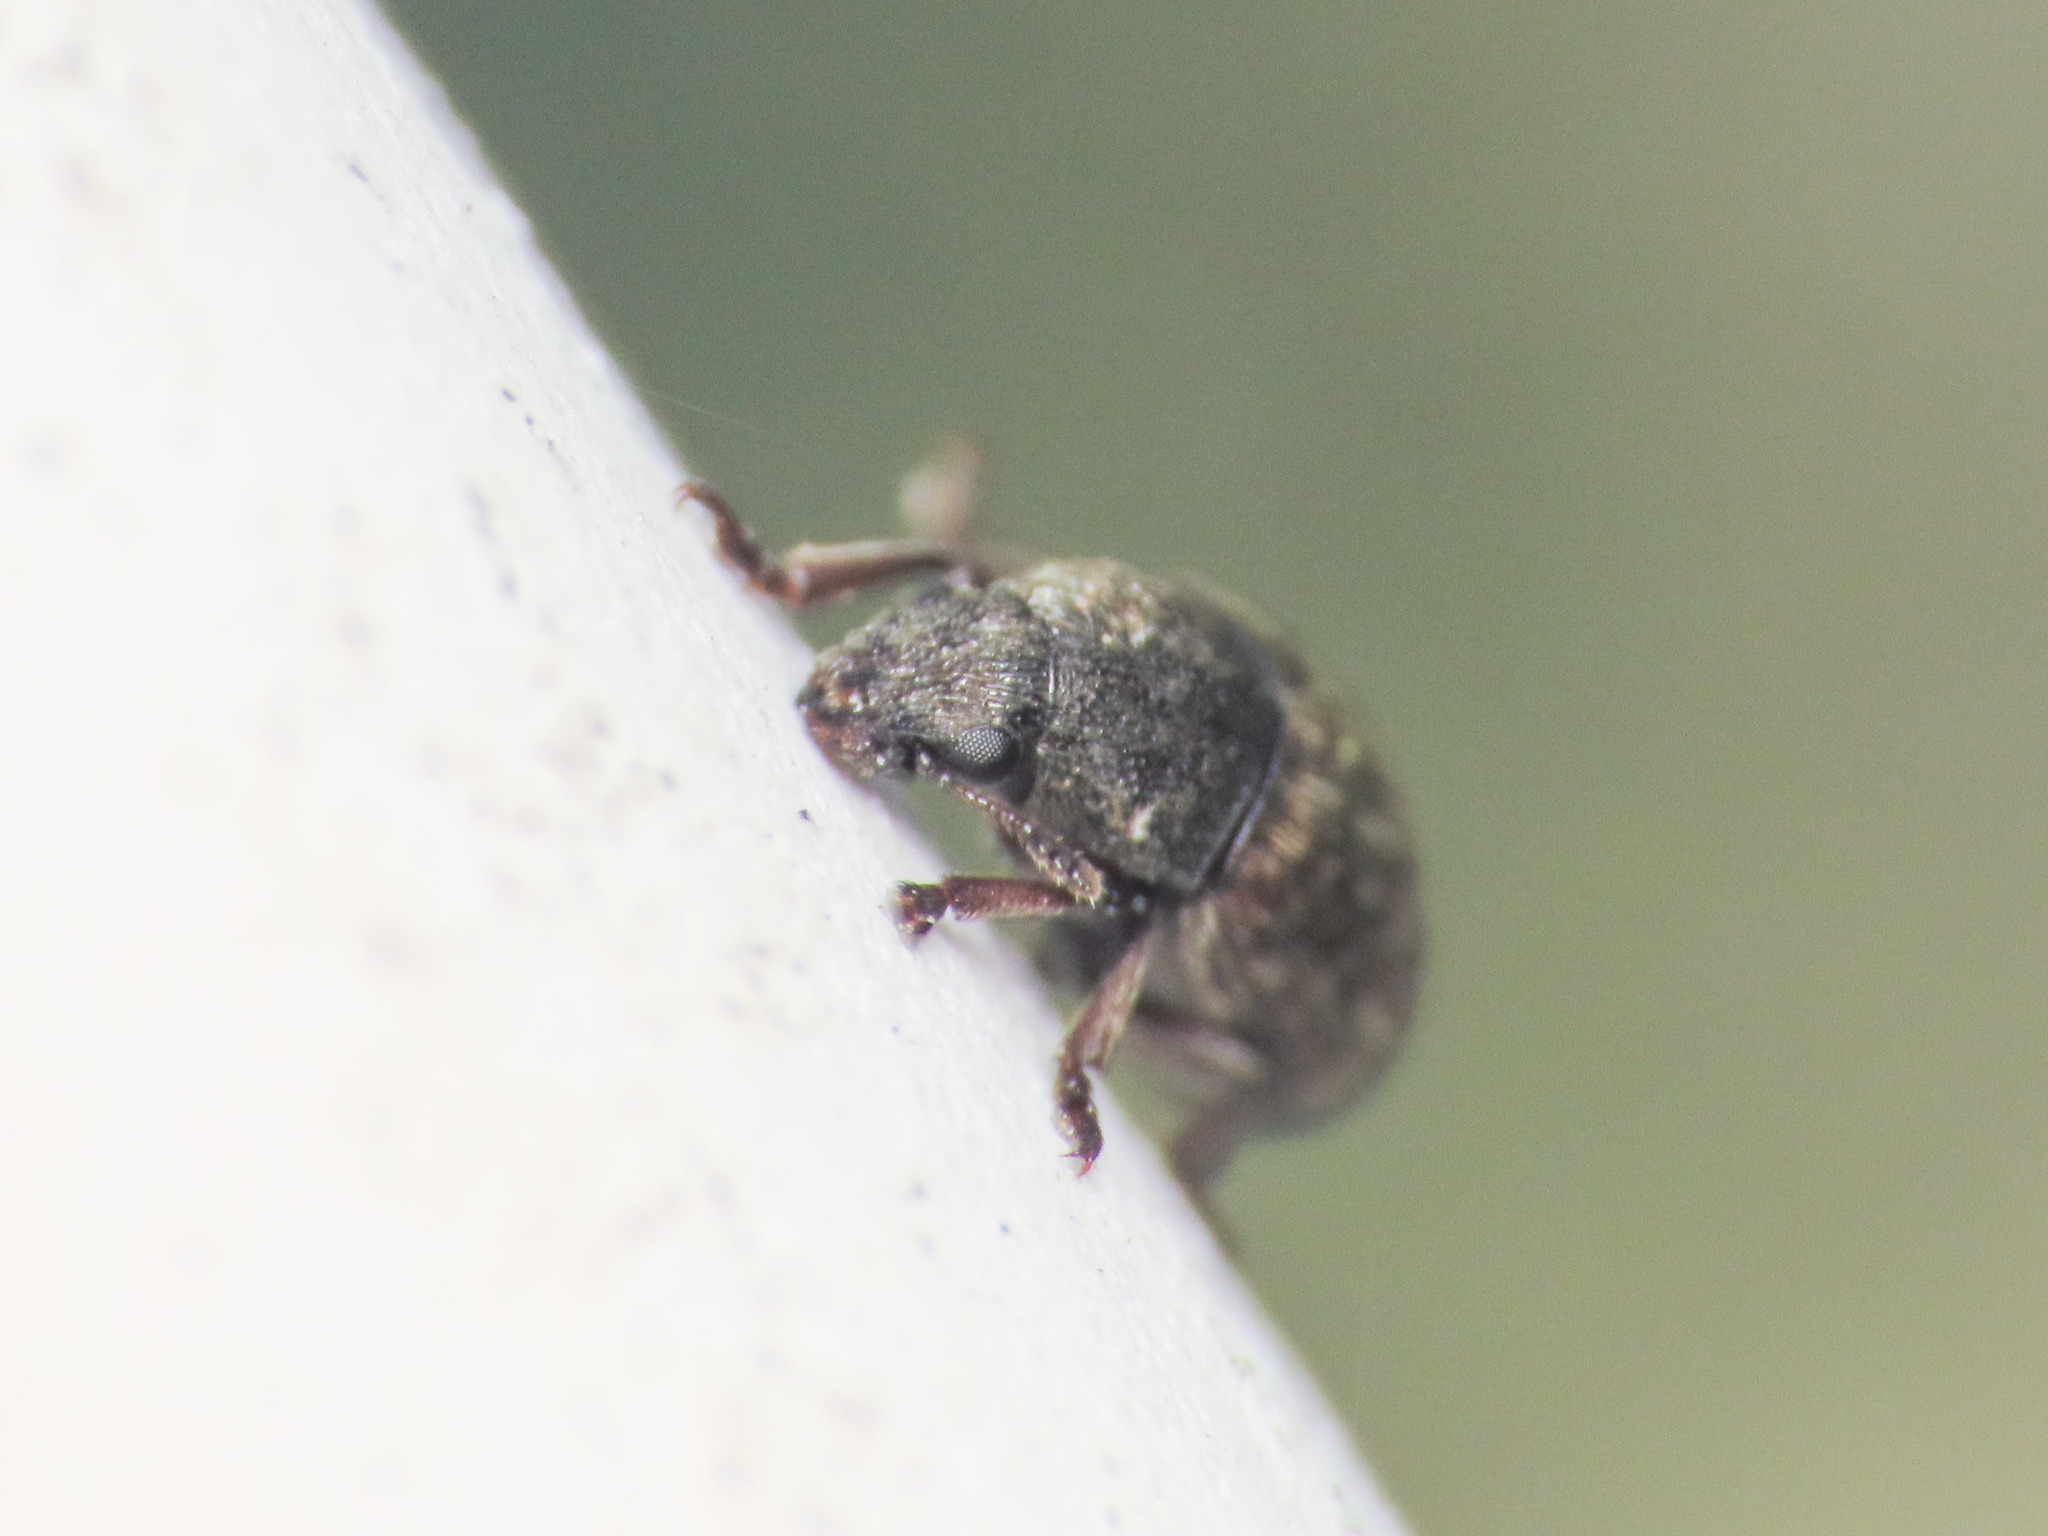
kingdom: Animalia
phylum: Arthropoda
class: Insecta
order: Coleoptera
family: Anthribidae
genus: Anthribus
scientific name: Anthribus nebulosus
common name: Fungus weevil
